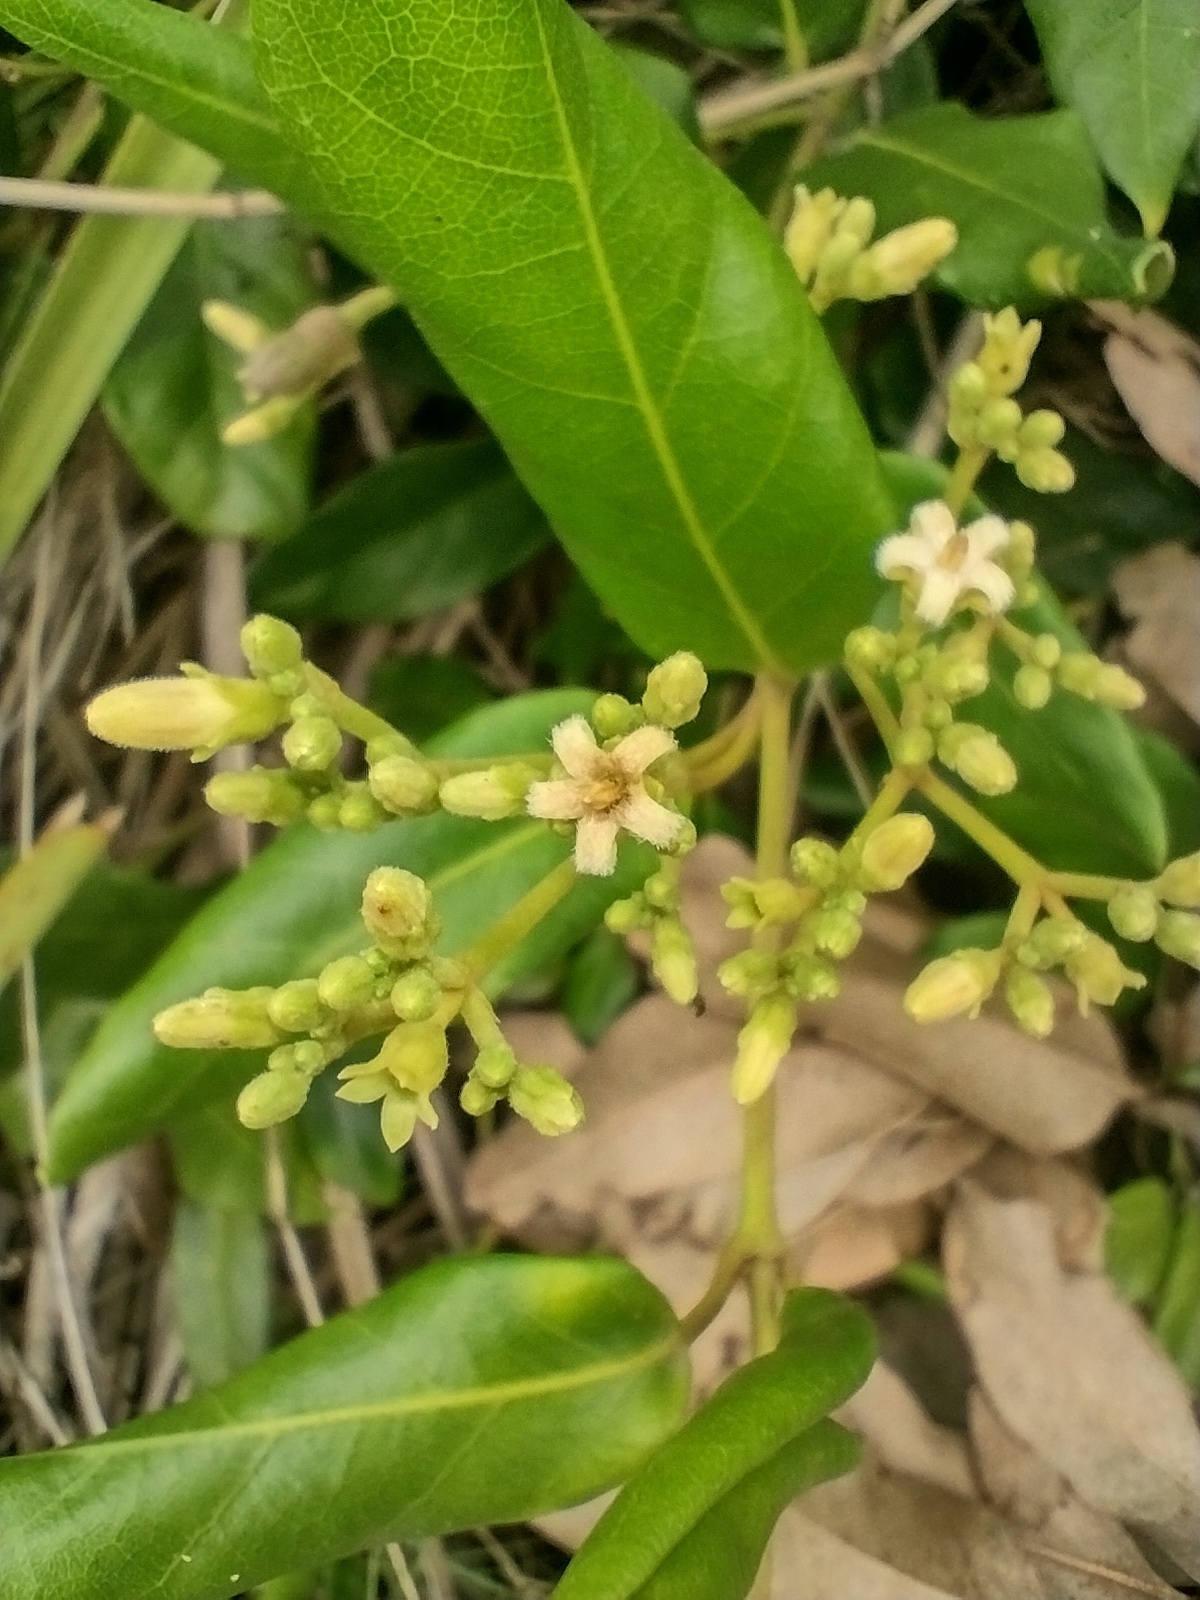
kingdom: Plantae
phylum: Tracheophyta
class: Magnoliopsida
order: Gentianales
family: Apocynaceae
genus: Parsonsia
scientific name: Parsonsia straminea
